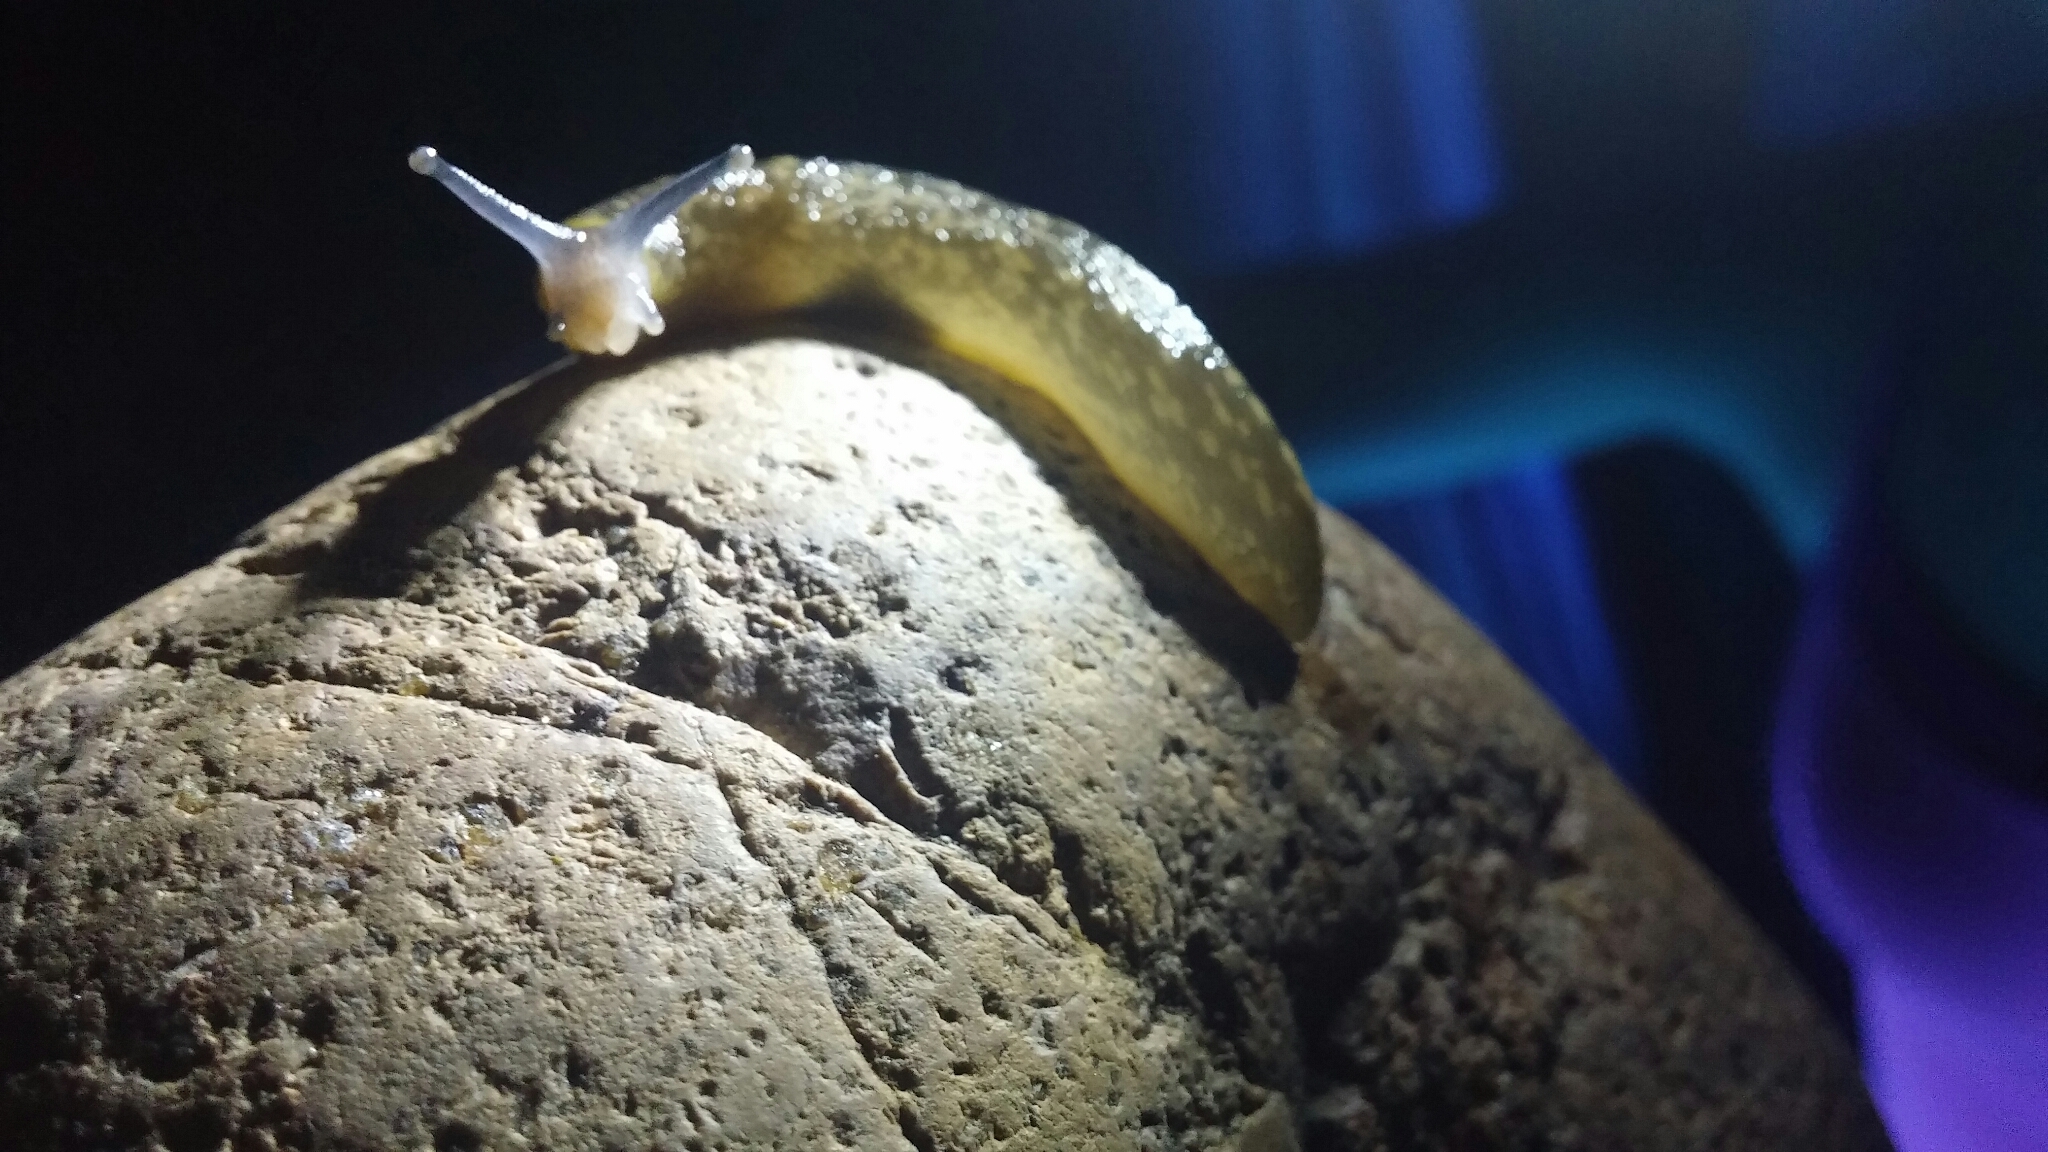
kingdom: Animalia
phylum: Mollusca
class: Gastropoda
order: Stylommatophora
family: Limacidae
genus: Limacus
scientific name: Limacus flavus
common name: Yellow gardenslug
